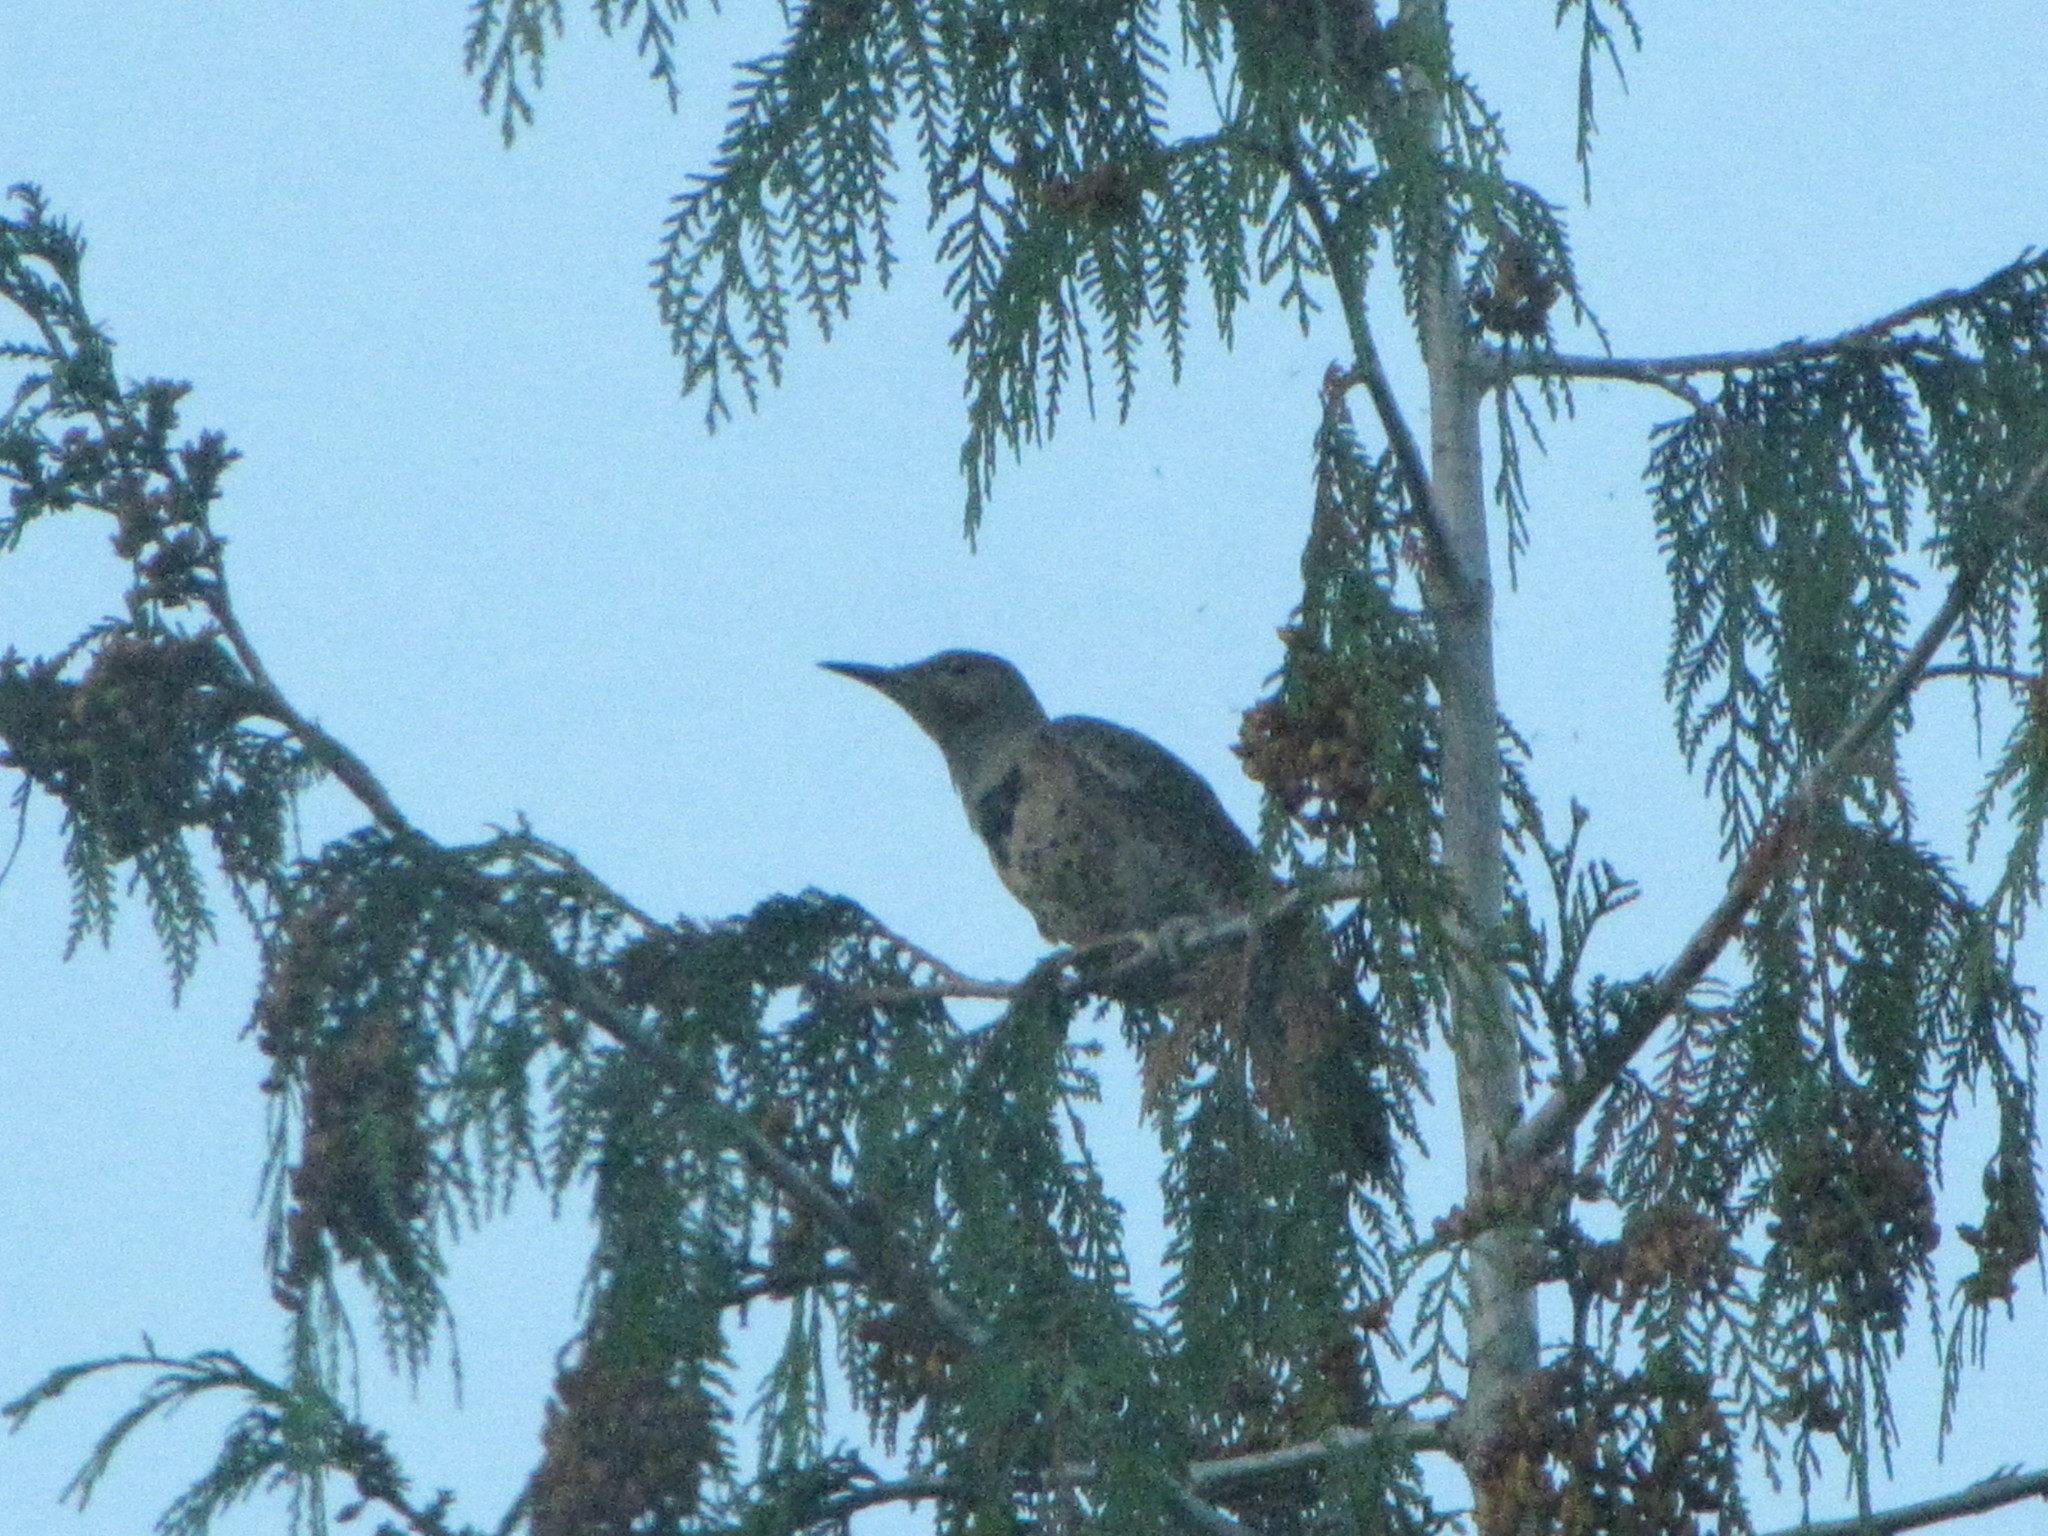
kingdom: Animalia
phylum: Chordata
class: Aves
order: Piciformes
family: Picidae
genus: Colaptes
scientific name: Colaptes auratus
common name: Northern flicker
